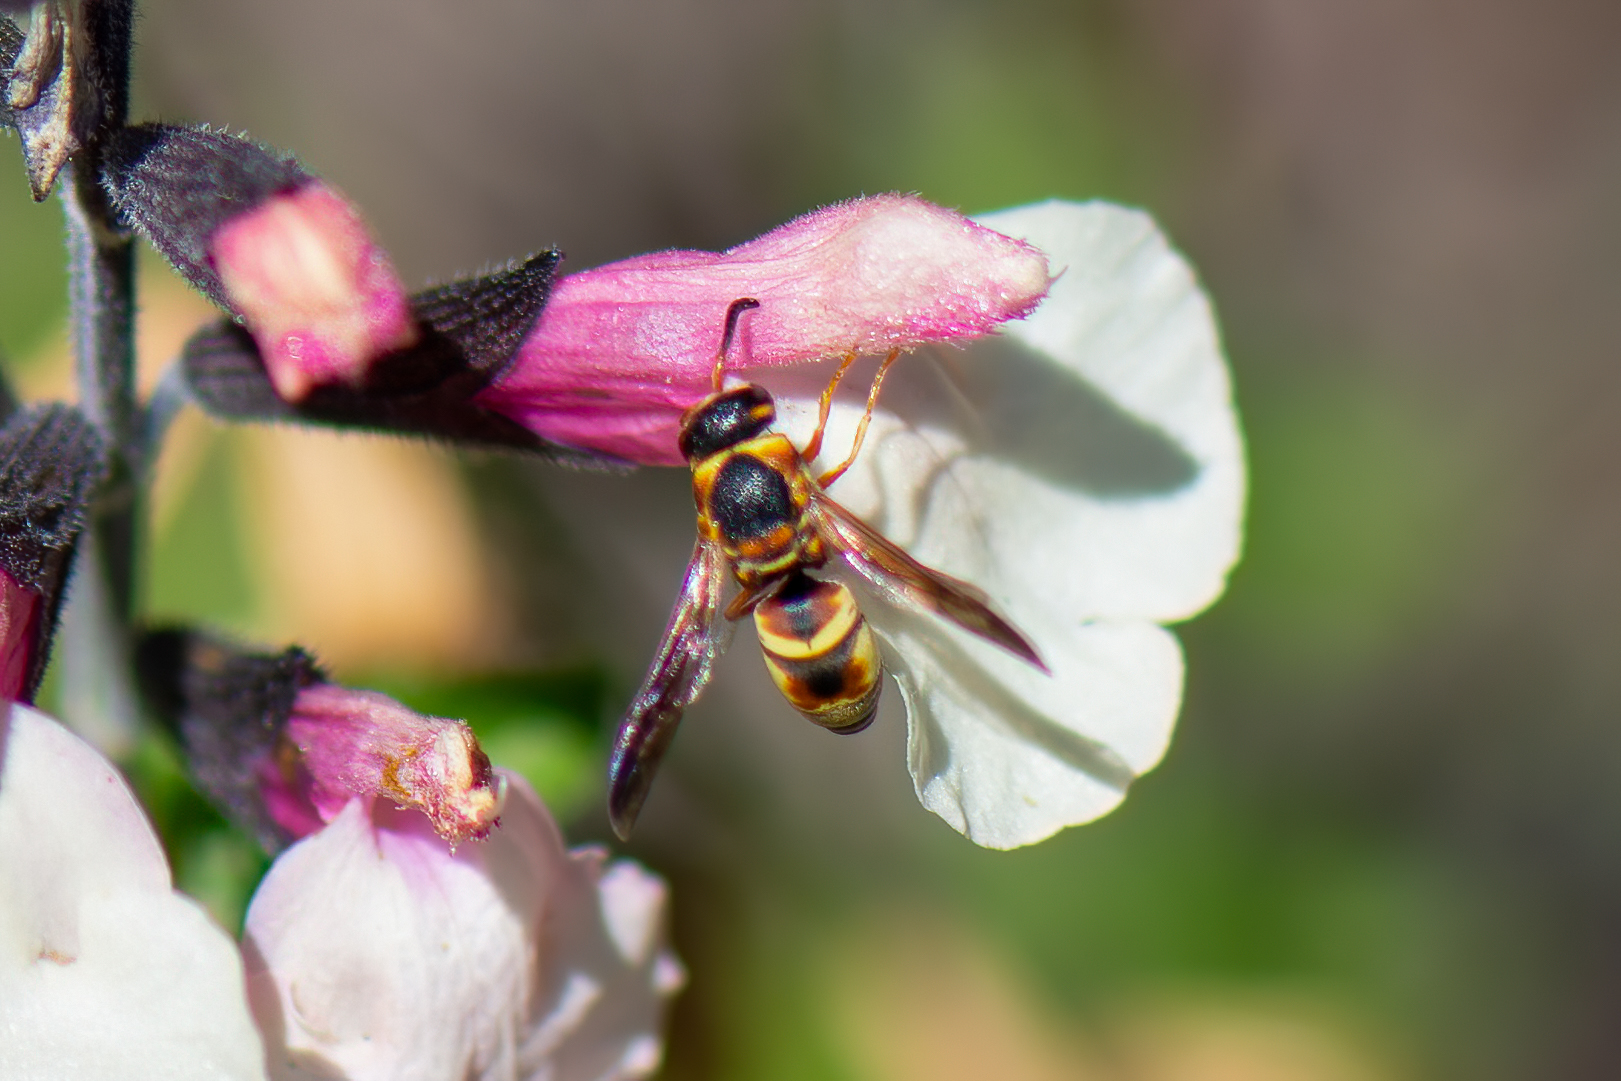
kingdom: Animalia
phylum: Arthropoda
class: Insecta
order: Hymenoptera
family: Eumenidae
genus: Euodynerus
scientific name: Euodynerus hidalgo
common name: Wasp
